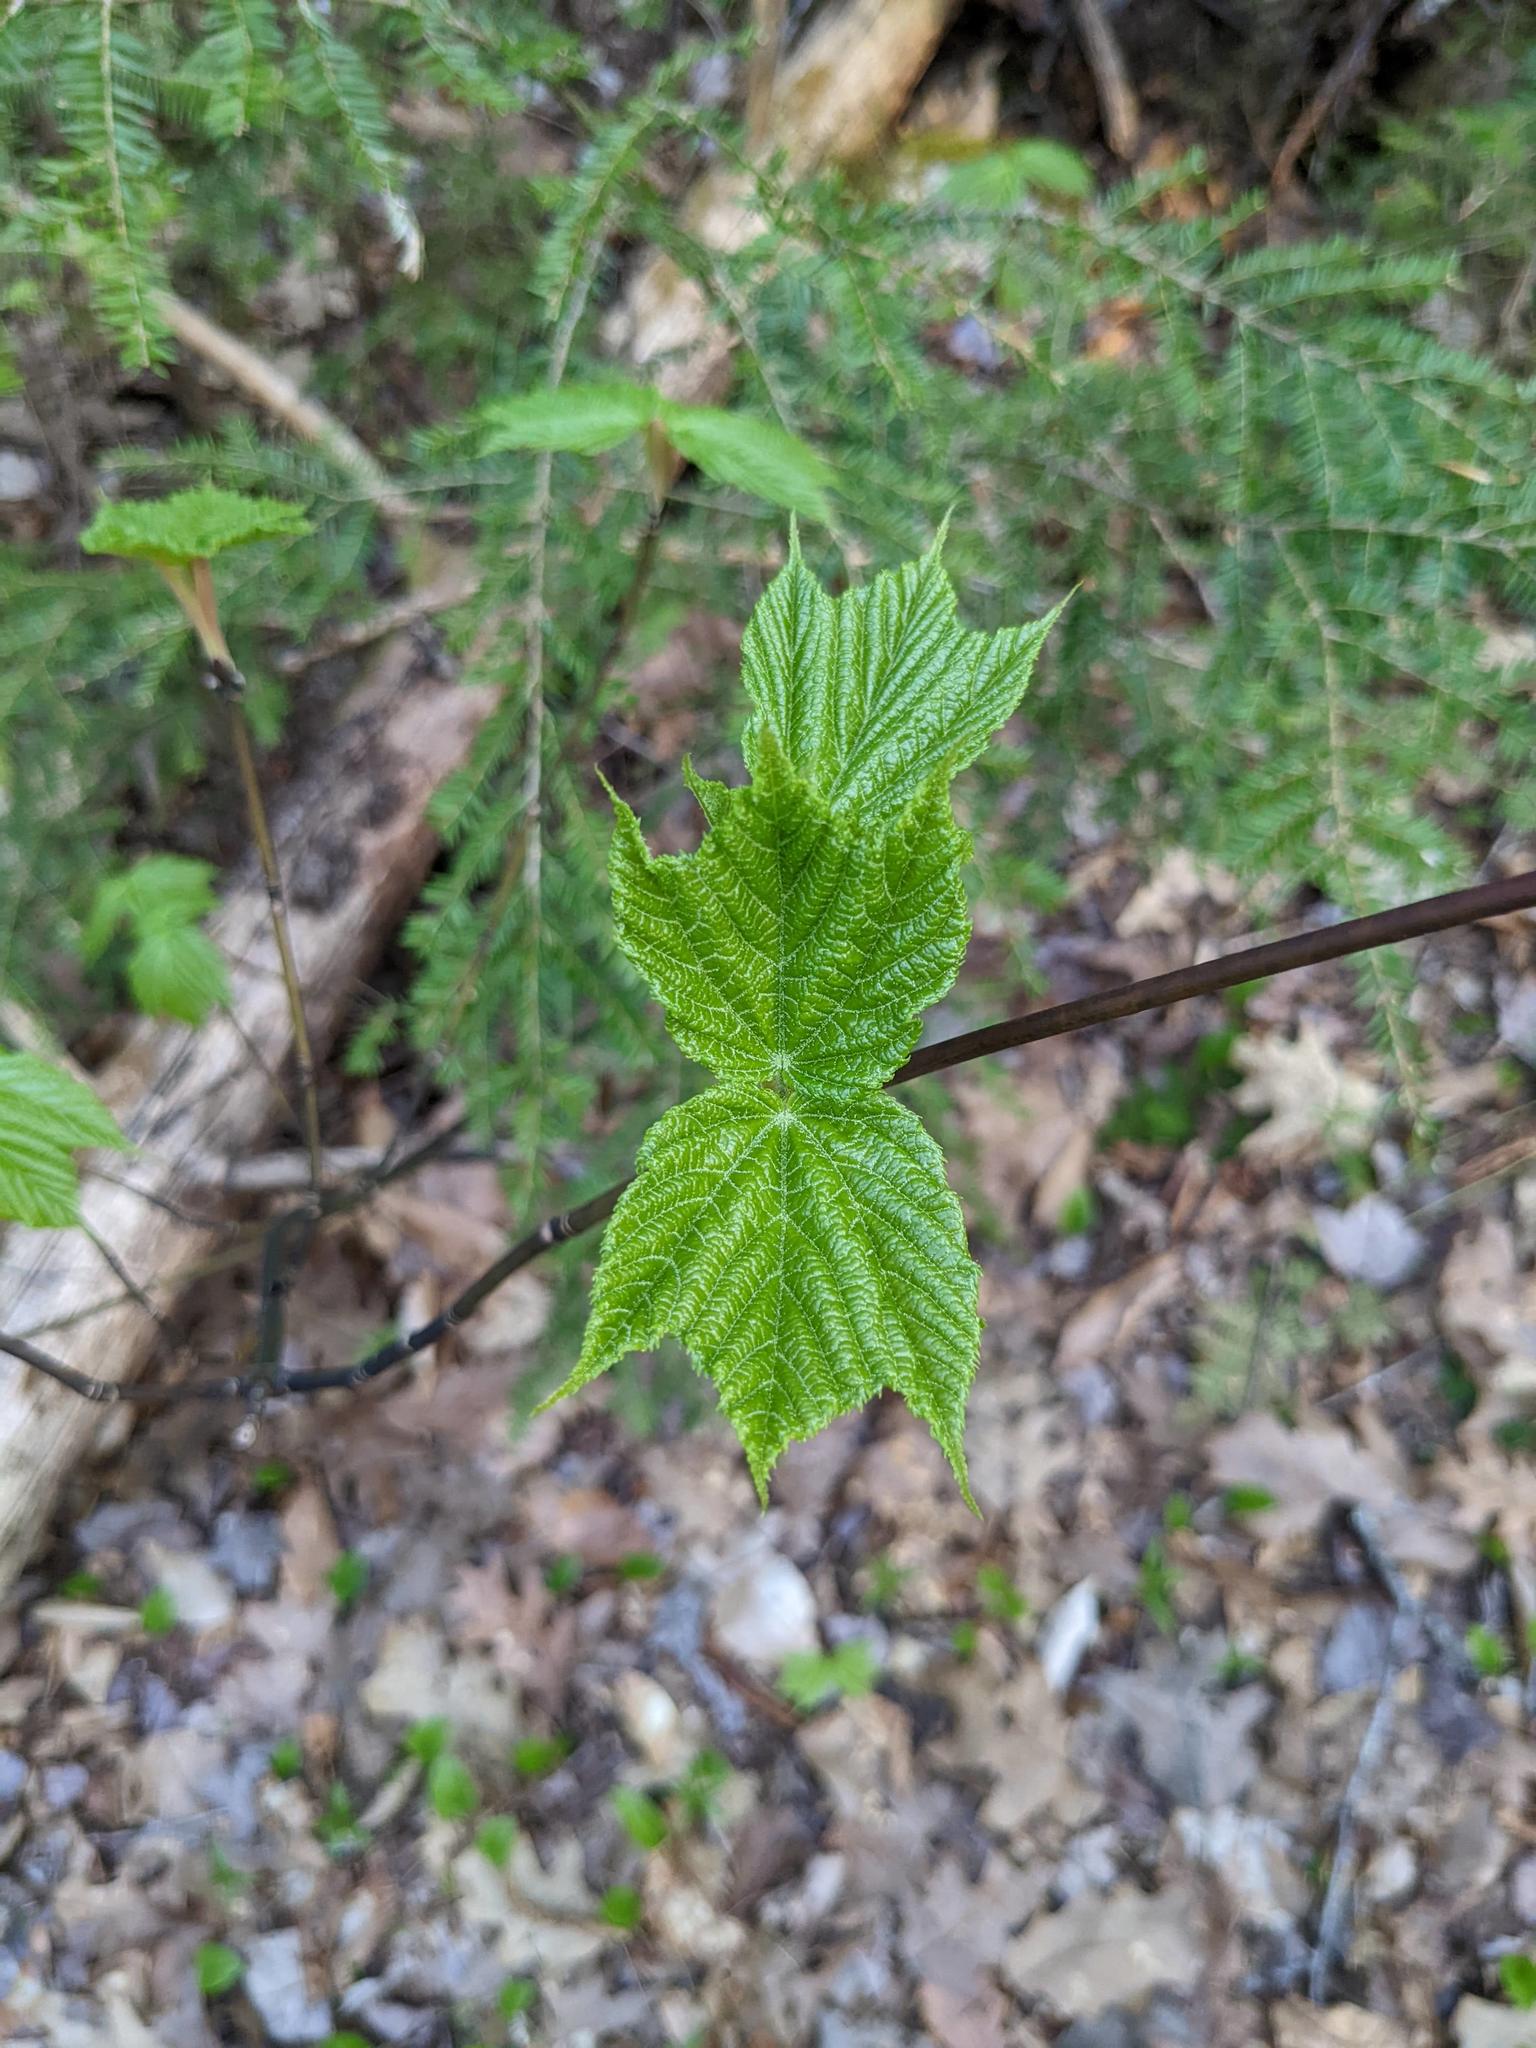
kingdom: Plantae
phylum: Tracheophyta
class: Magnoliopsida
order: Sapindales
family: Sapindaceae
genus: Acer
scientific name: Acer pensylvanicum
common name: Moosewood
